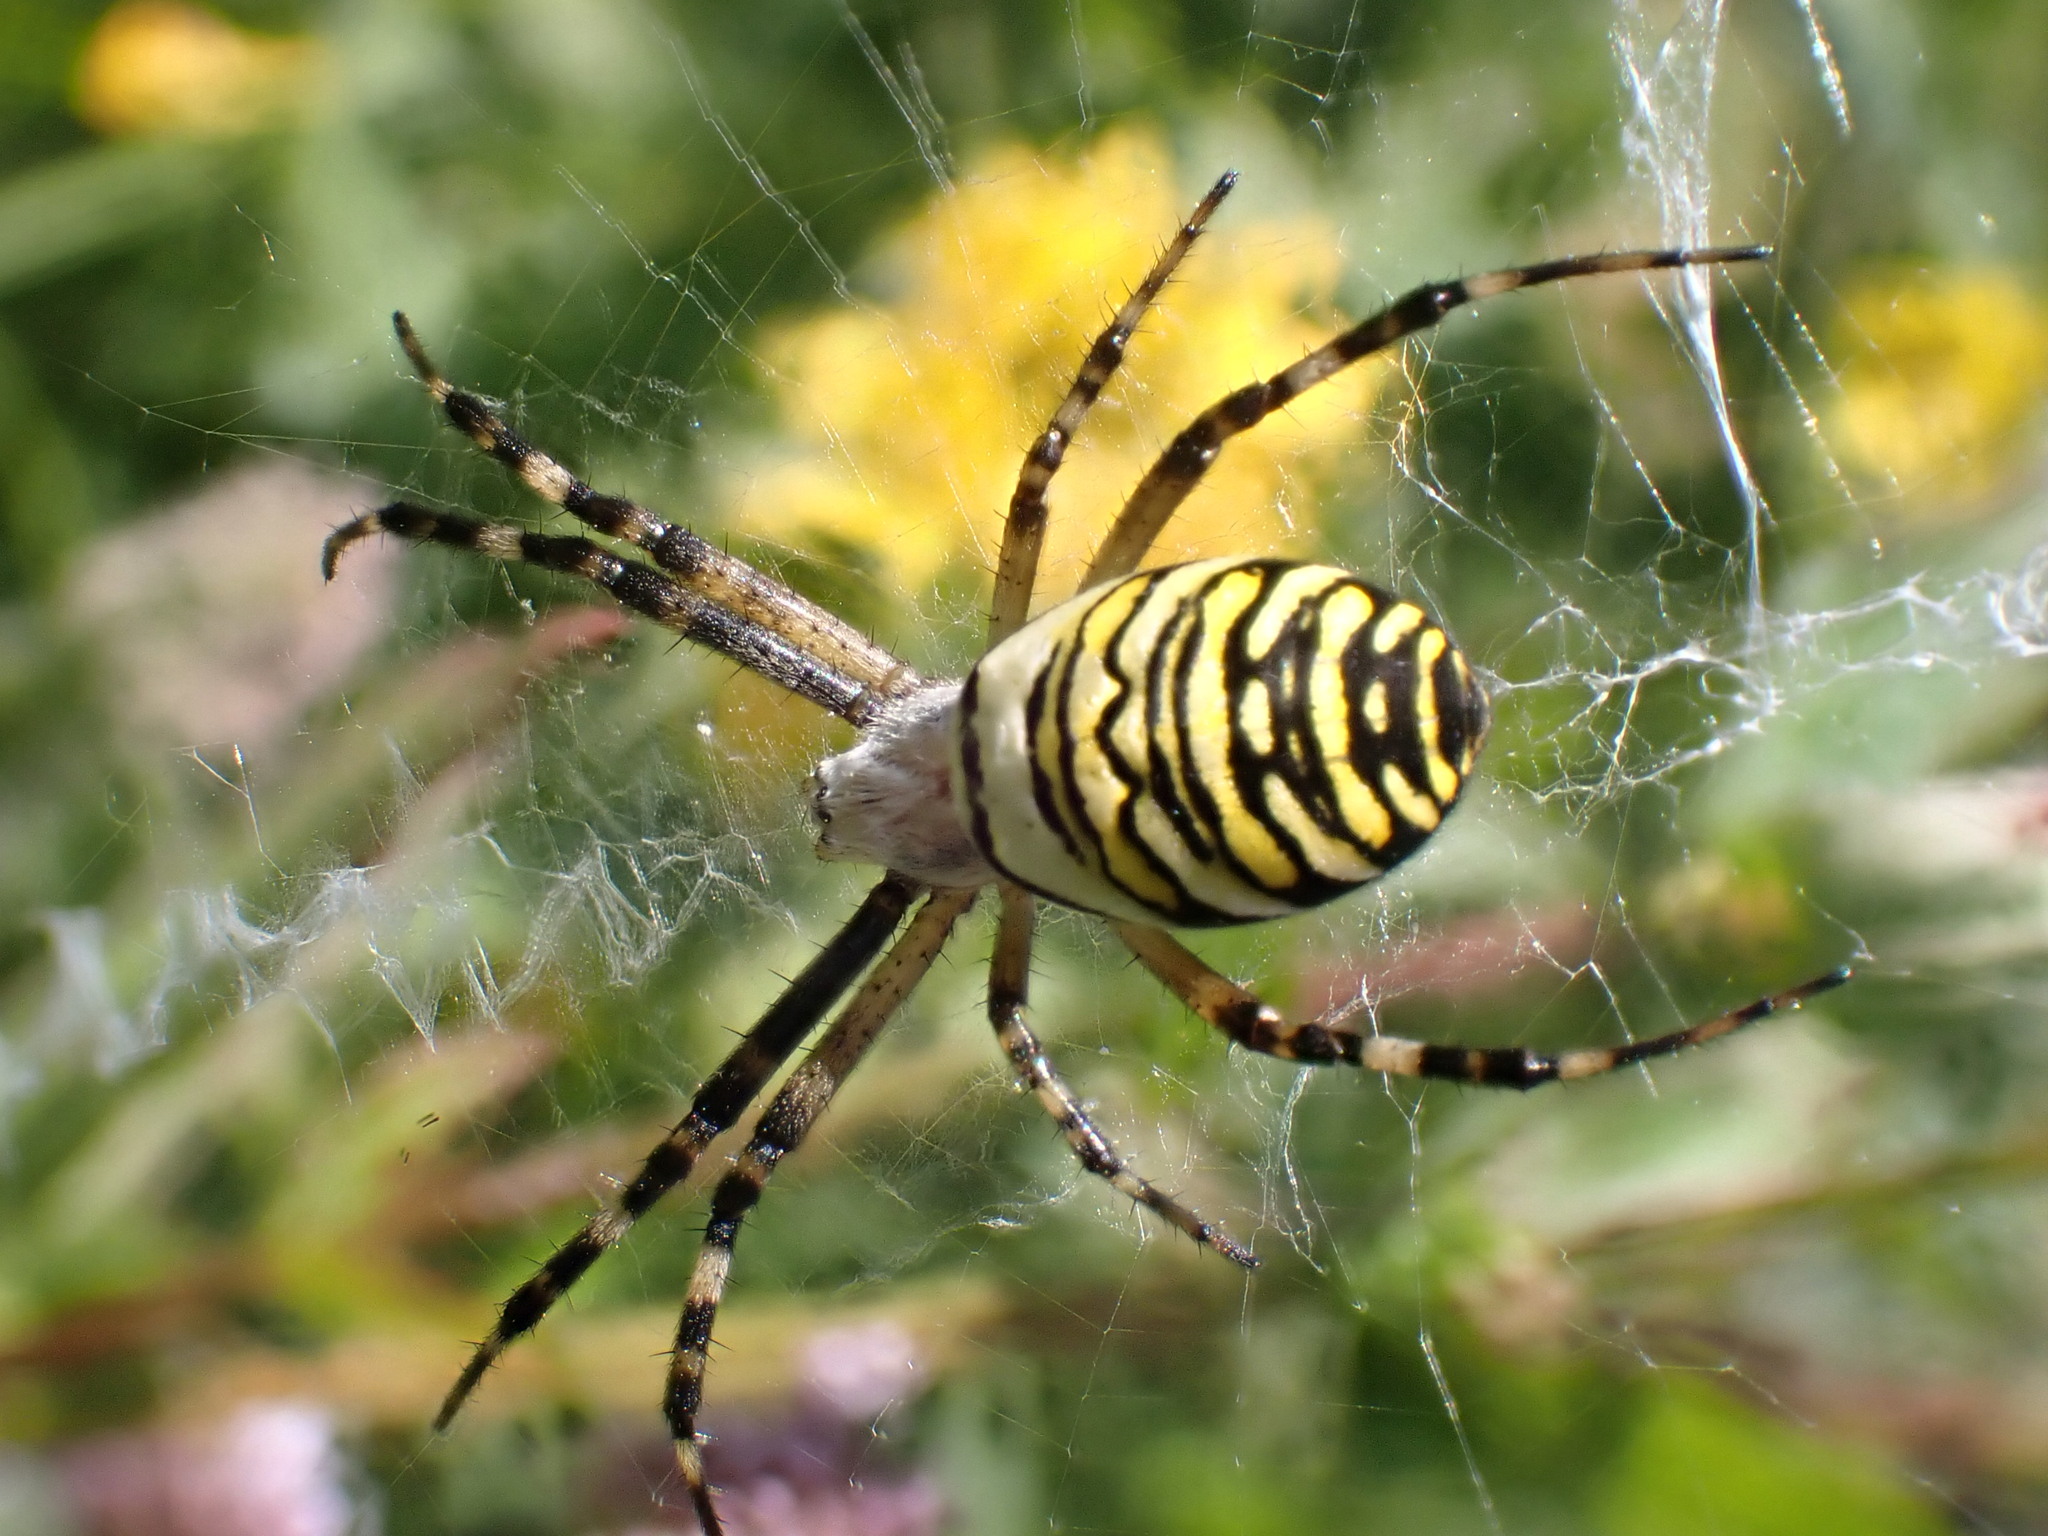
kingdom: Animalia
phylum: Arthropoda
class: Arachnida
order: Araneae
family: Araneidae
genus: Argiope
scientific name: Argiope bruennichi
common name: Wasp spider
